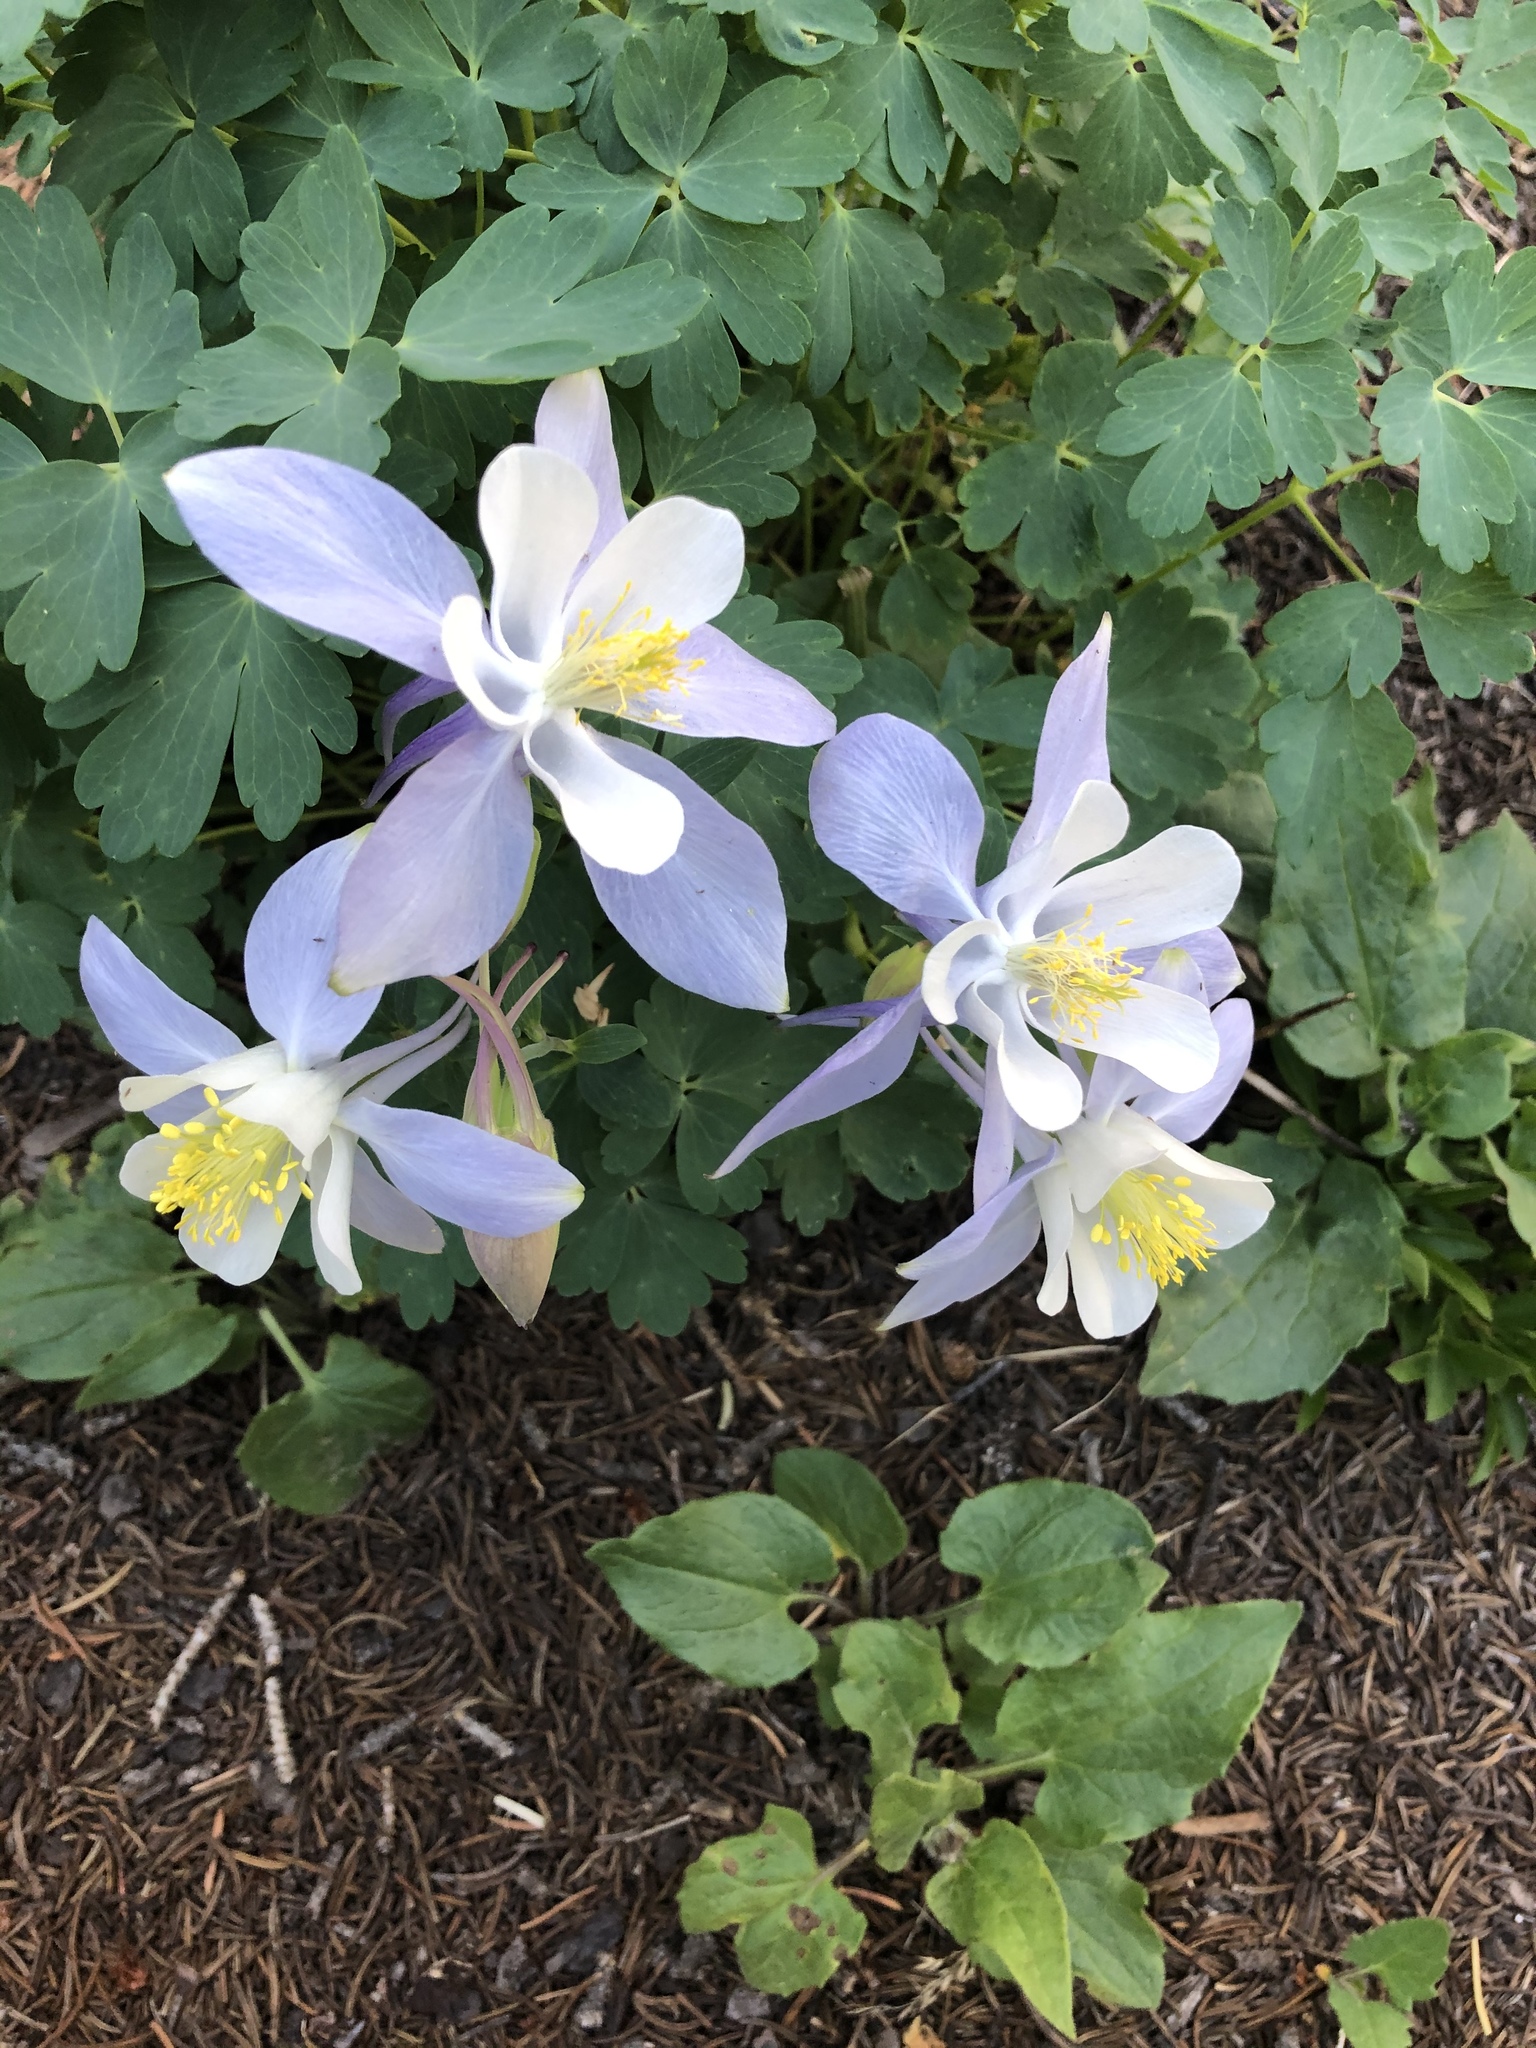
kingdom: Plantae
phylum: Tracheophyta
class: Magnoliopsida
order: Ranunculales
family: Ranunculaceae
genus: Aquilegia
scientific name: Aquilegia coerulea
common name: Rocky mountain columbine
